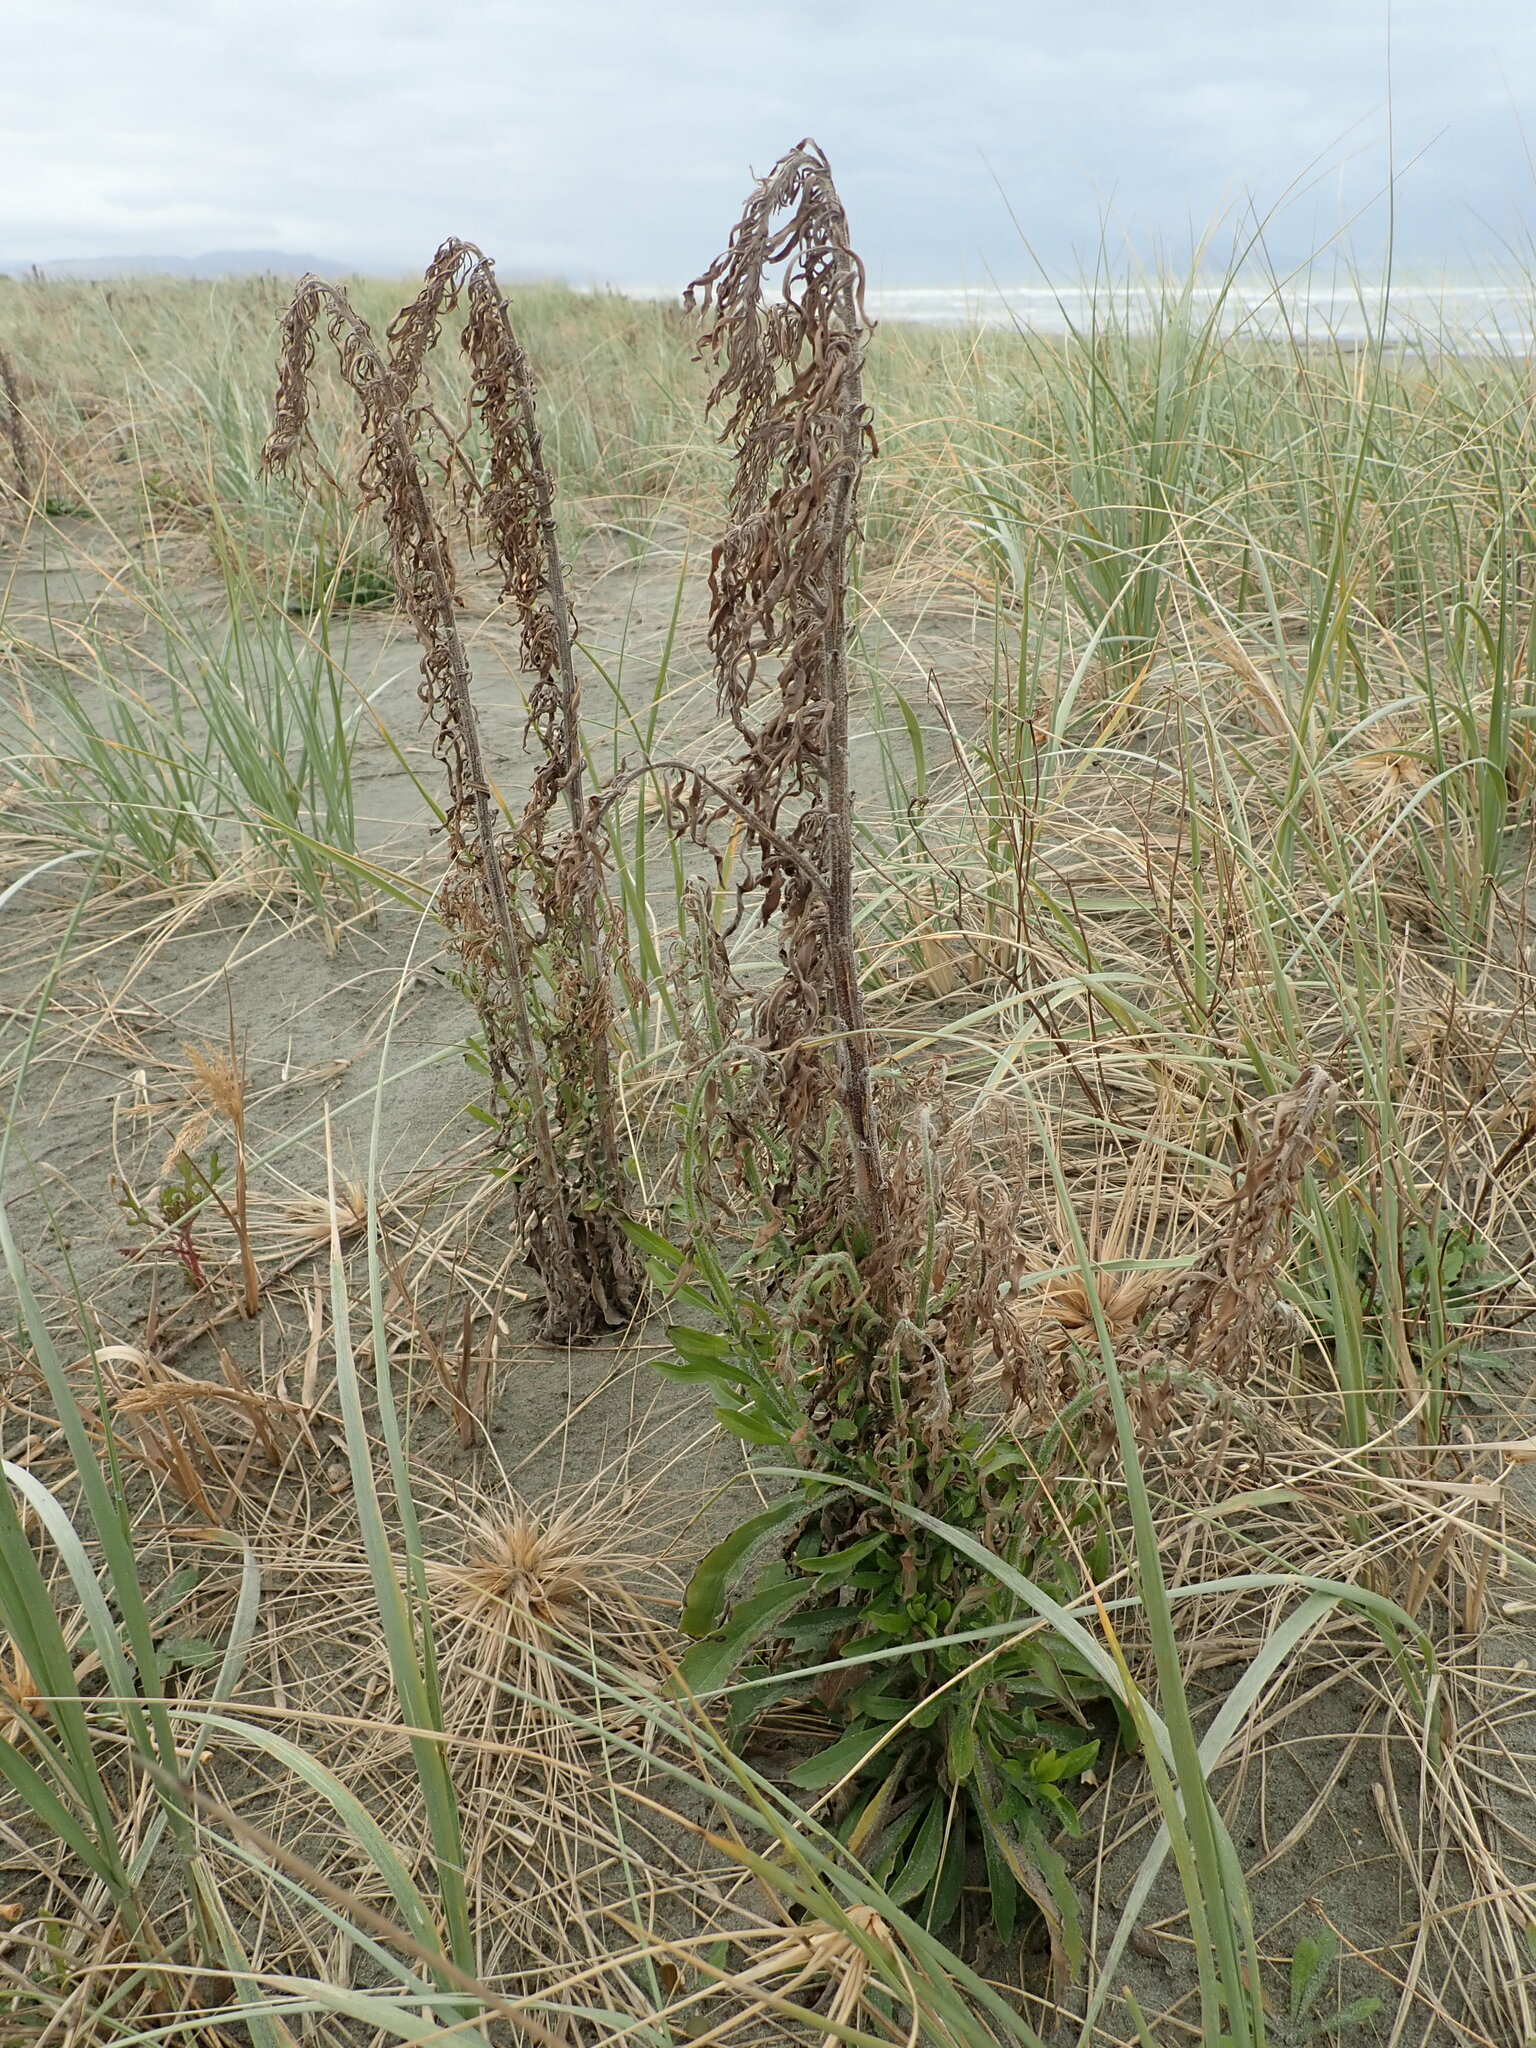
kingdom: Plantae
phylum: Tracheophyta
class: Magnoliopsida
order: Asterales
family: Asteraceae
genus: Erigeron
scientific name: Erigeron sumatrensis
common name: Daisy
